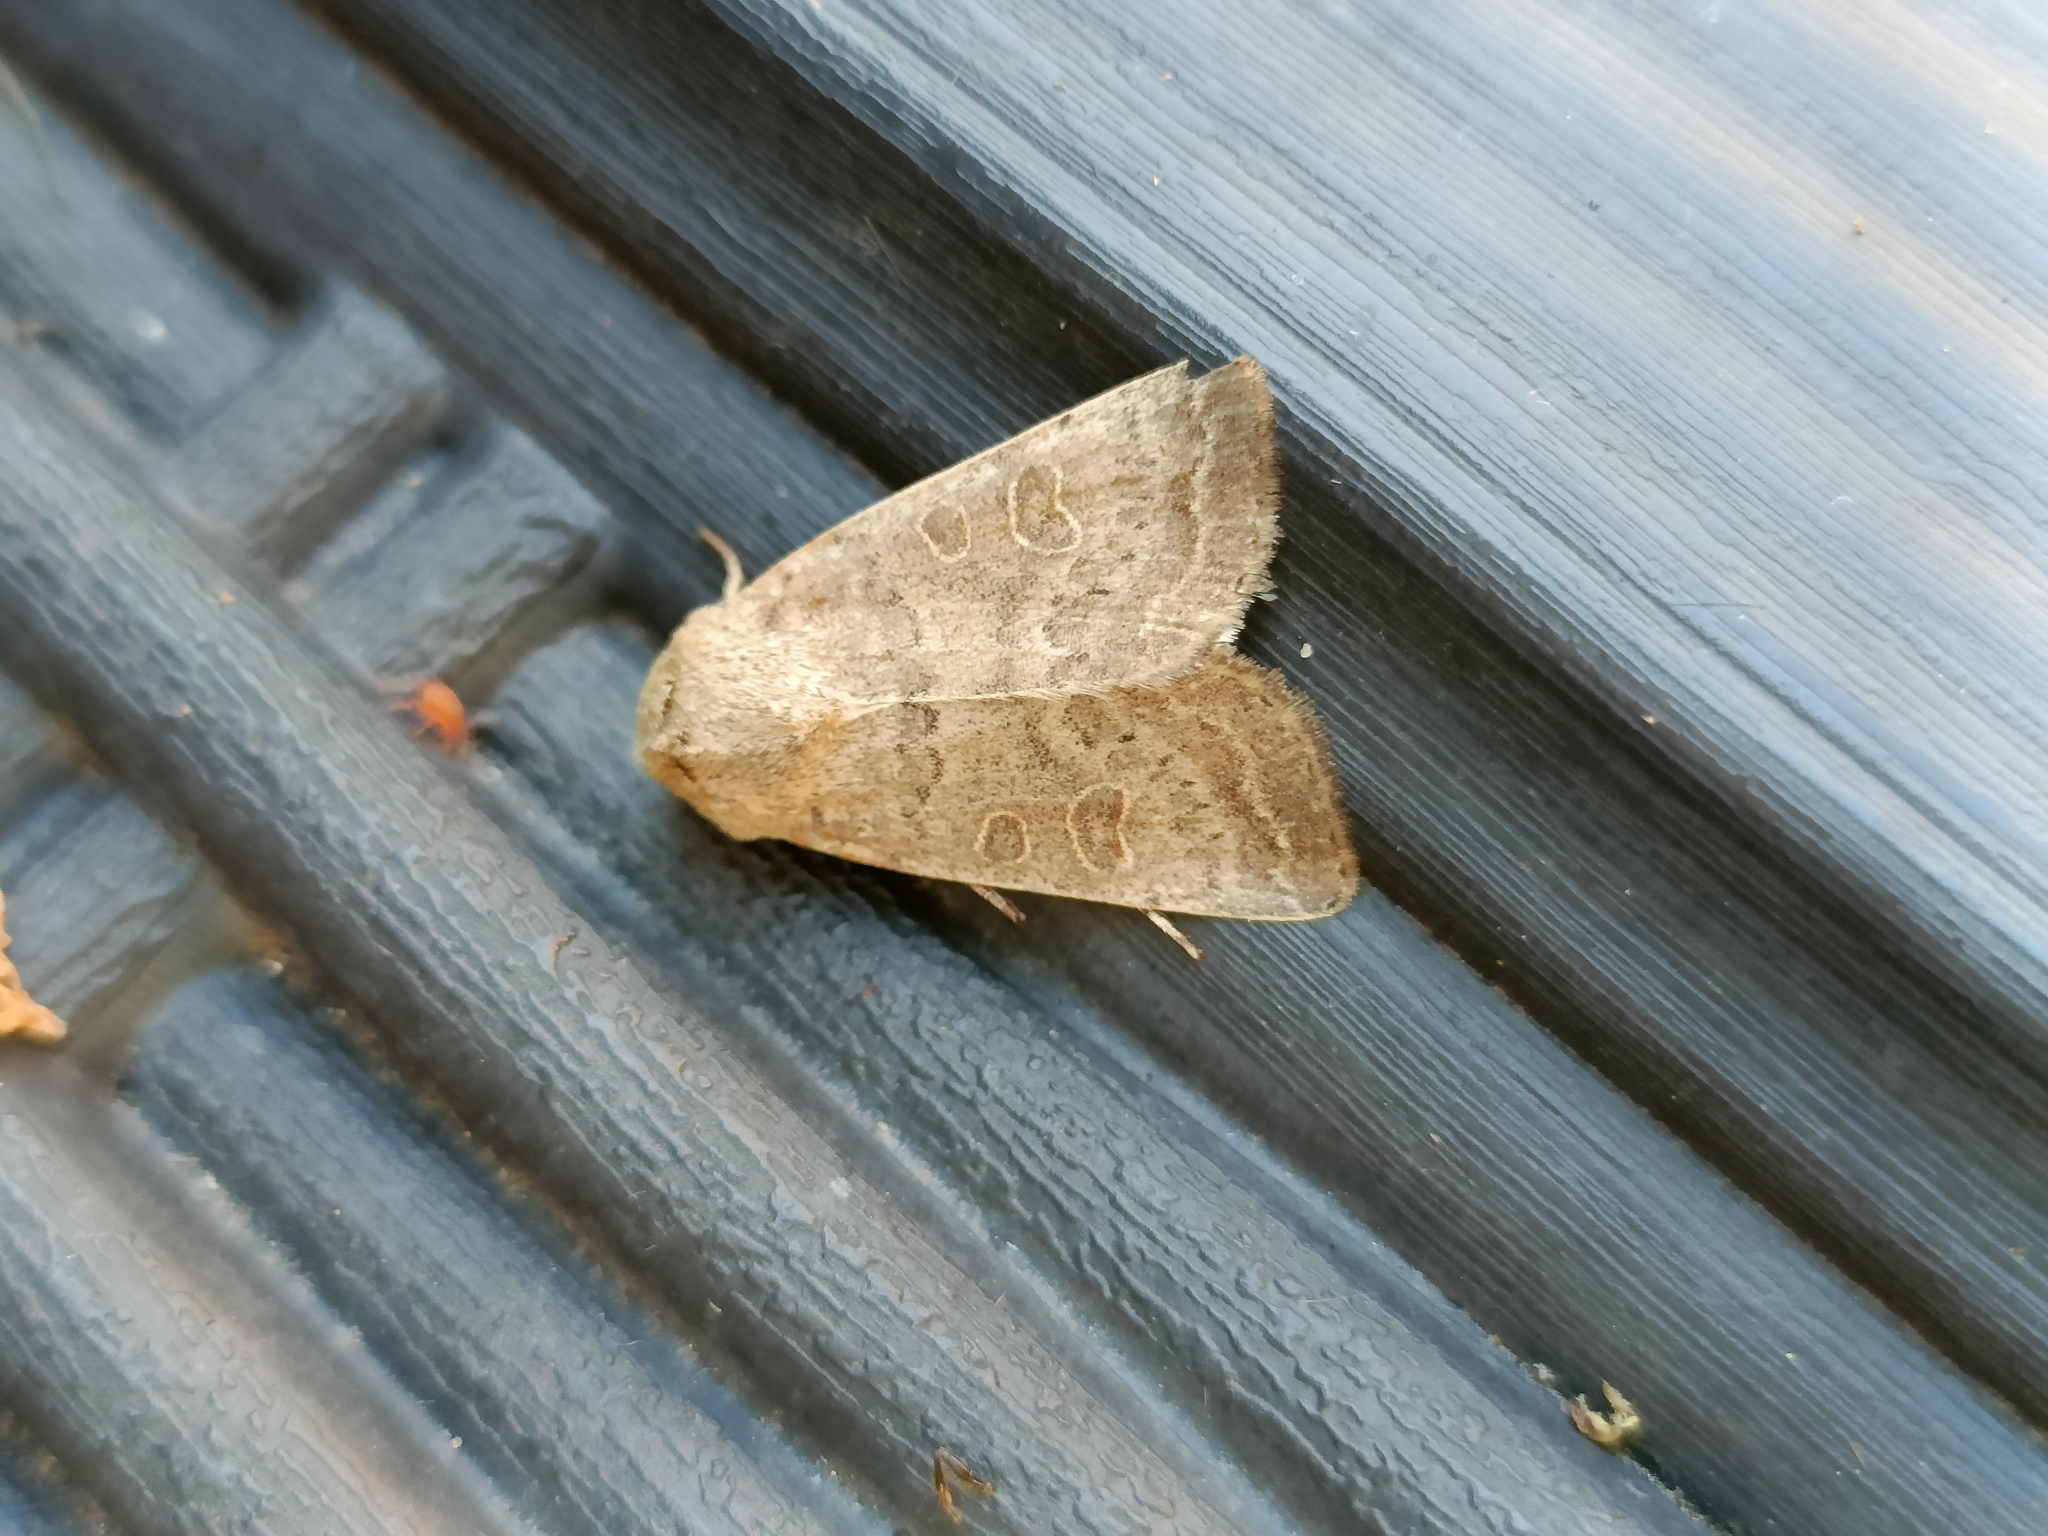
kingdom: Animalia
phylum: Arthropoda
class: Insecta
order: Lepidoptera
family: Noctuidae
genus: Hoplodrina
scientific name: Hoplodrina ambigua
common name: Vine's rustic
